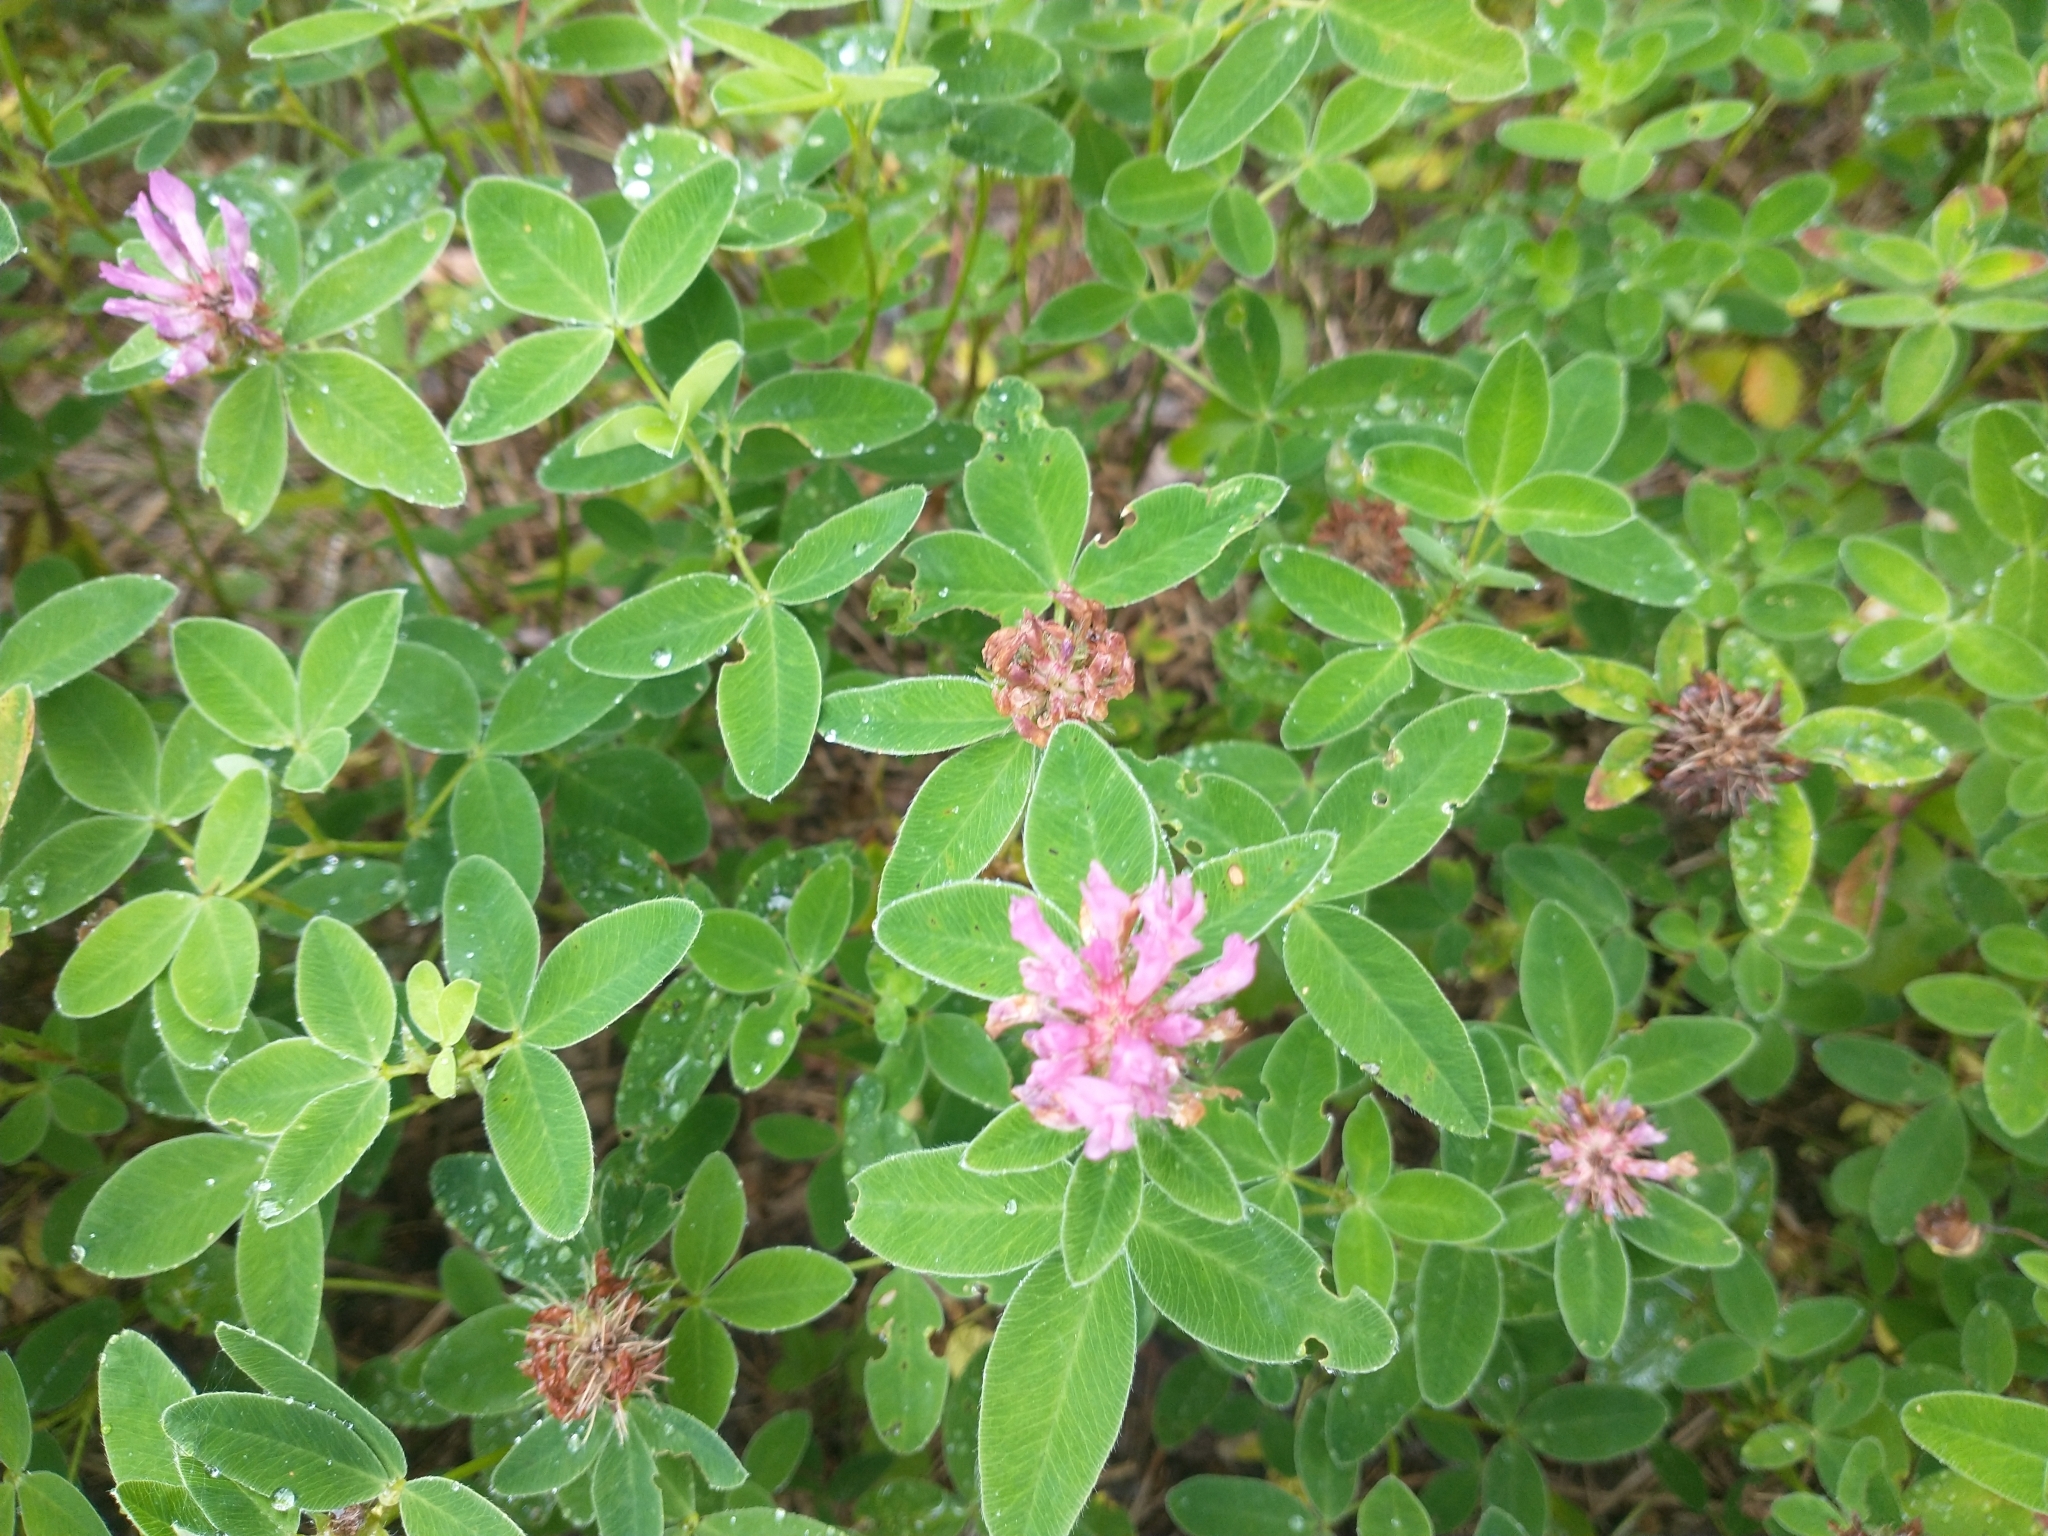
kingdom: Plantae
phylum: Tracheophyta
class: Magnoliopsida
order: Fabales
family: Fabaceae
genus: Trifolium
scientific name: Trifolium medium
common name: Zigzag clover
